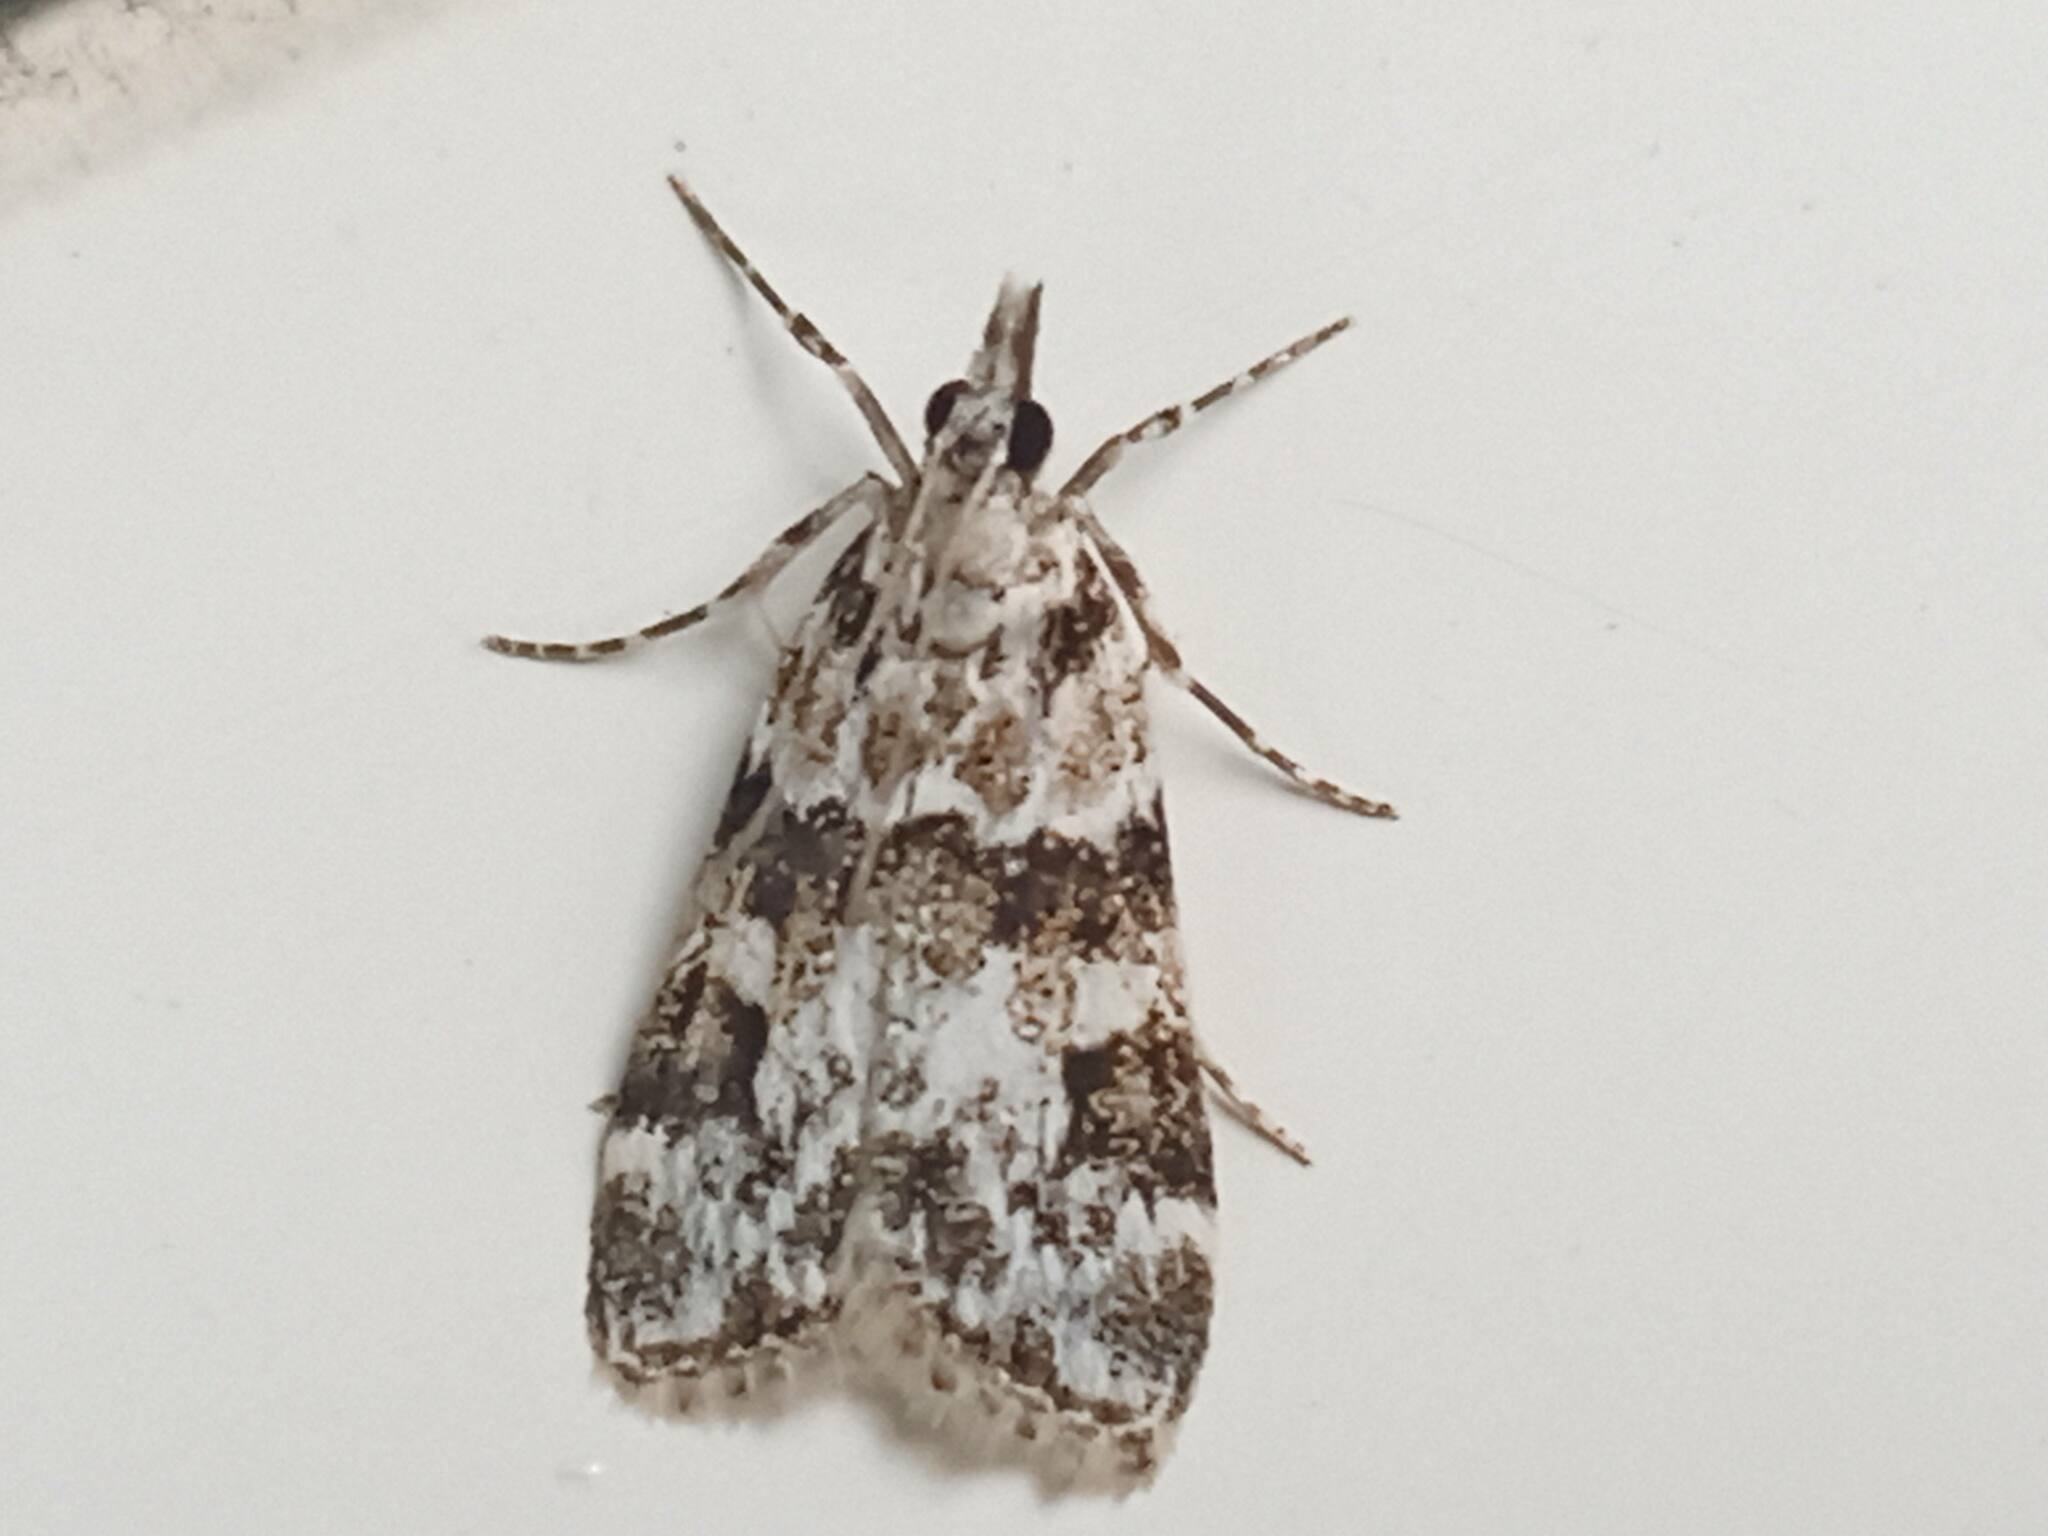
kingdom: Animalia
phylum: Arthropoda
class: Insecta
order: Lepidoptera
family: Crambidae
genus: Eudonia
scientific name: Eudonia delunella
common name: Pied grey
